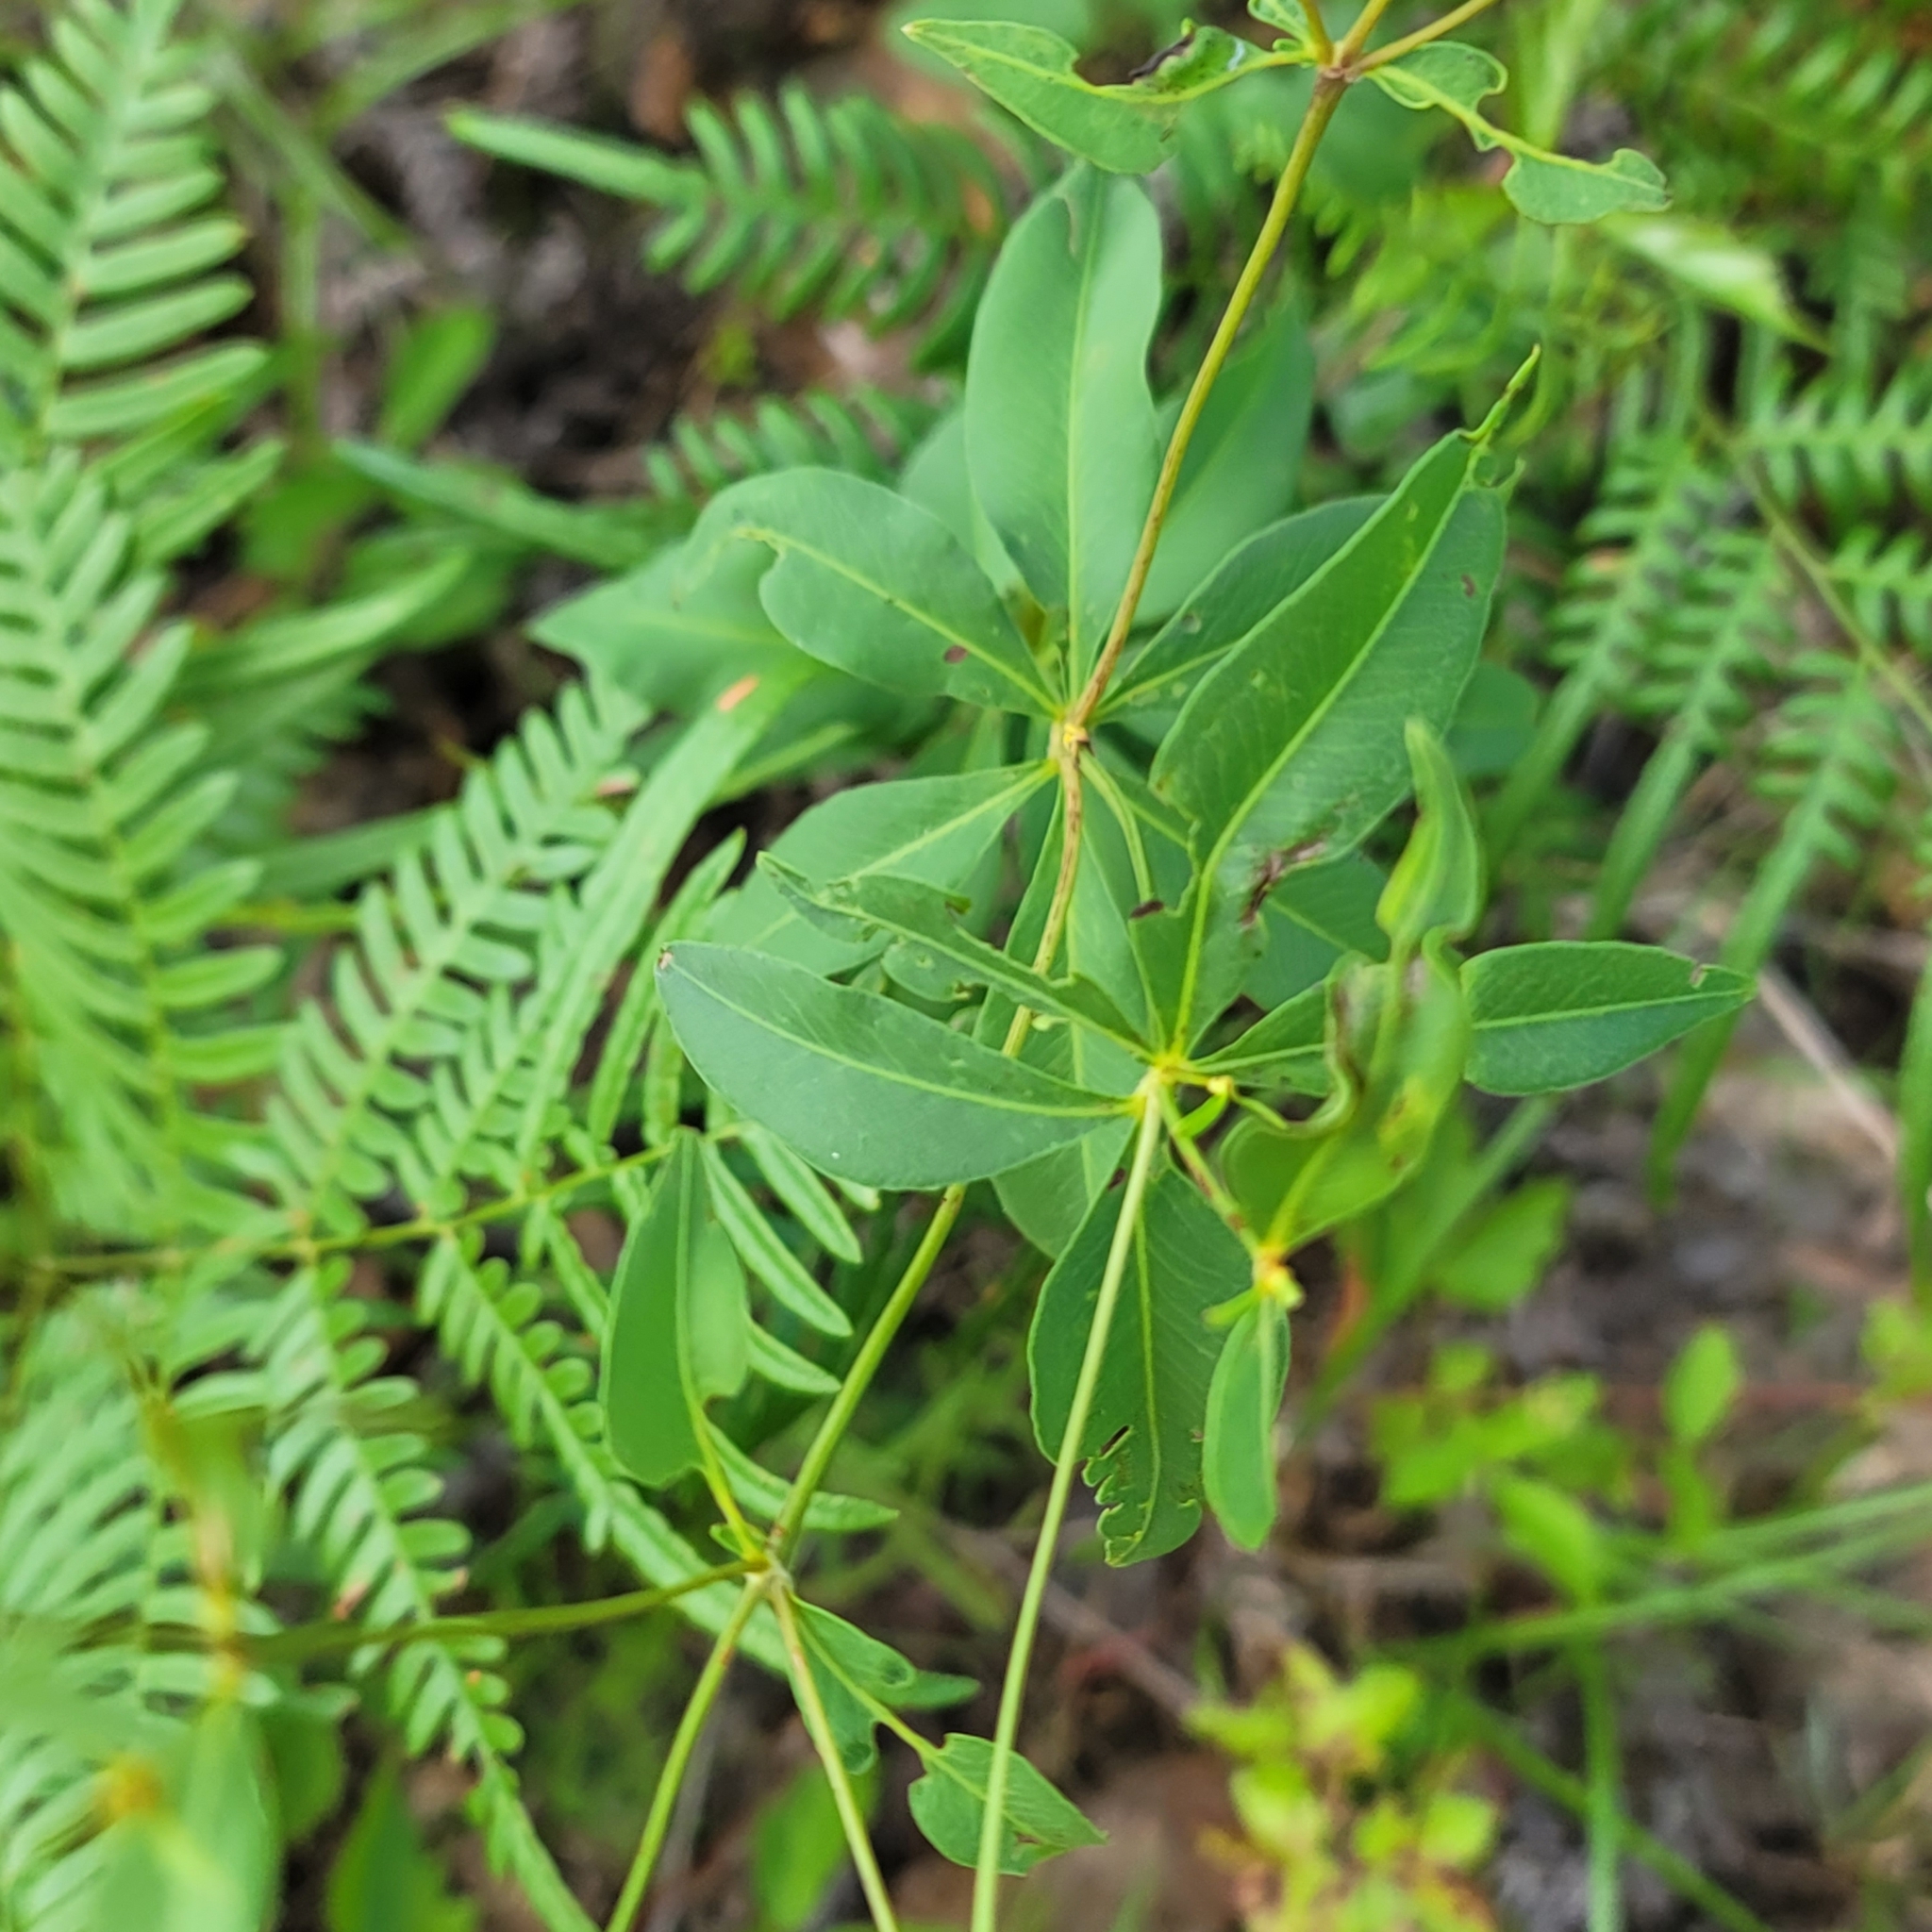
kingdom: Plantae
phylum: Tracheophyta
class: Magnoliopsida
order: Asterales
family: Asteraceae
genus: Coreopsis
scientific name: Coreopsis major
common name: Forest tickseed
